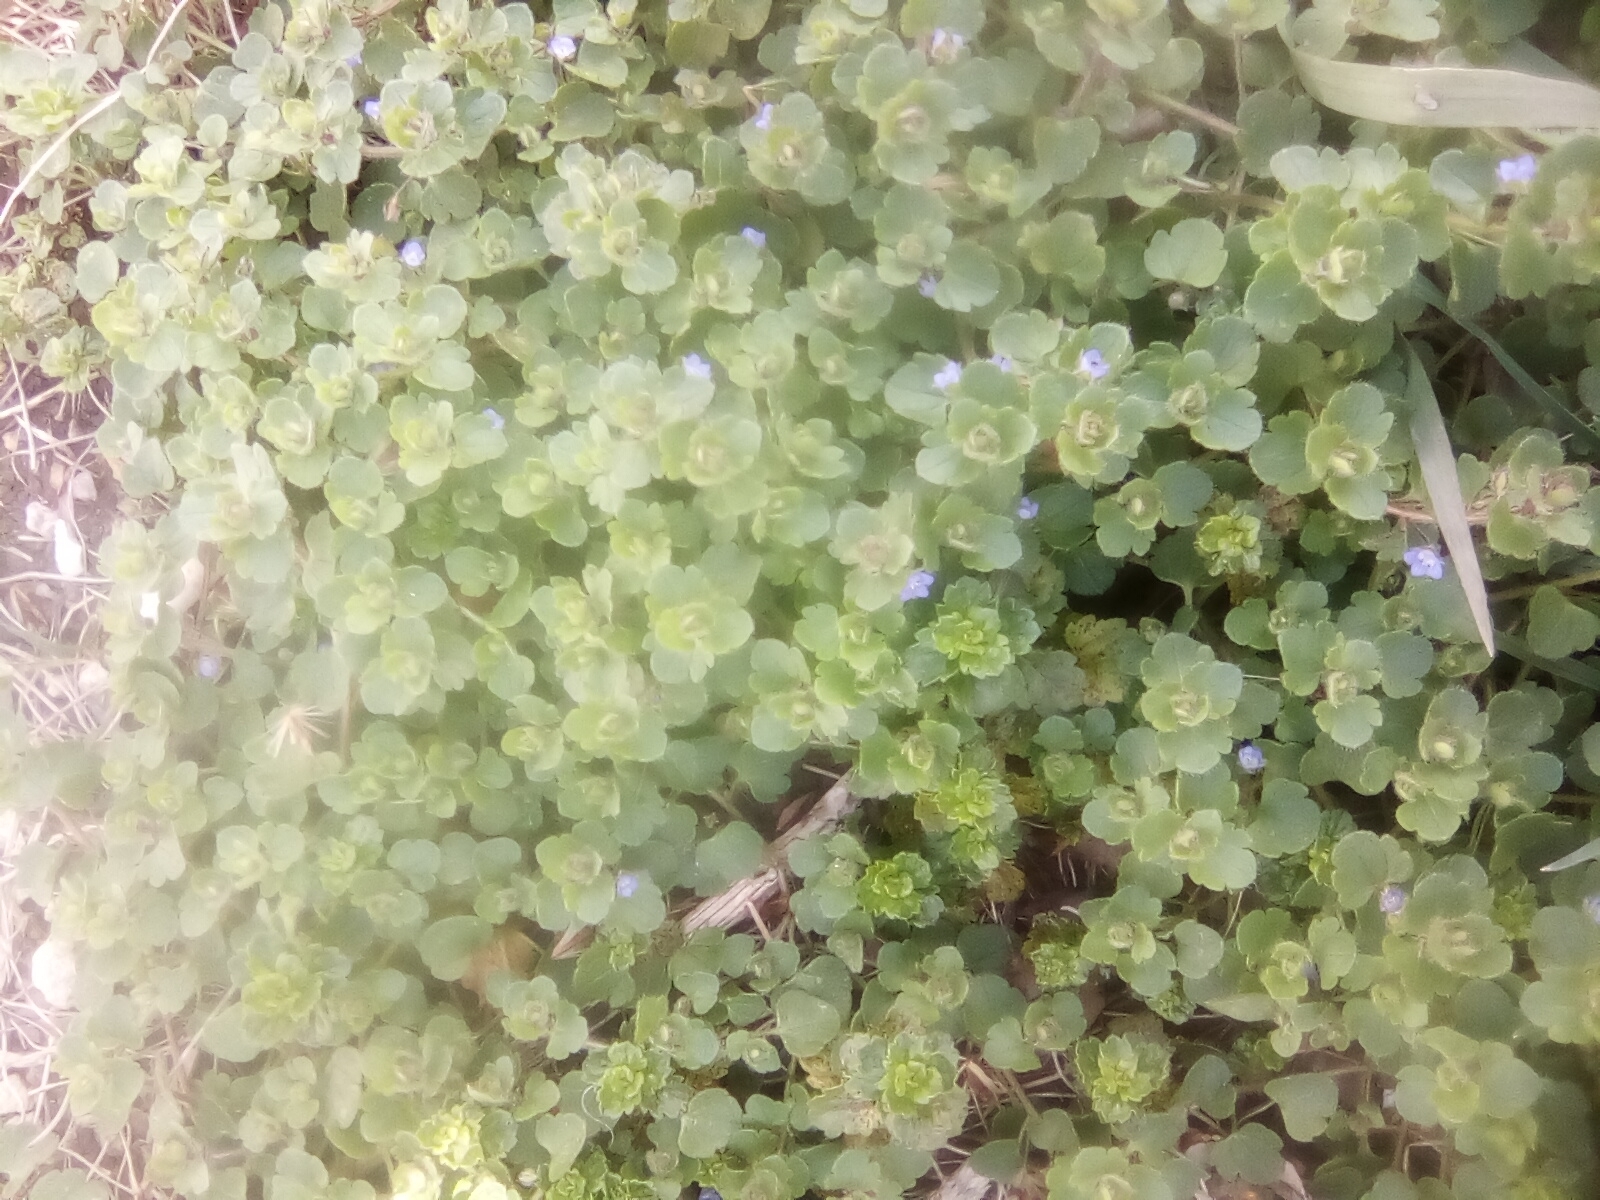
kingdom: Plantae
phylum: Tracheophyta
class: Magnoliopsida
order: Lamiales
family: Plantaginaceae
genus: Veronica
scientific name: Veronica hederifolia
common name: Ivy-leaved speedwell
